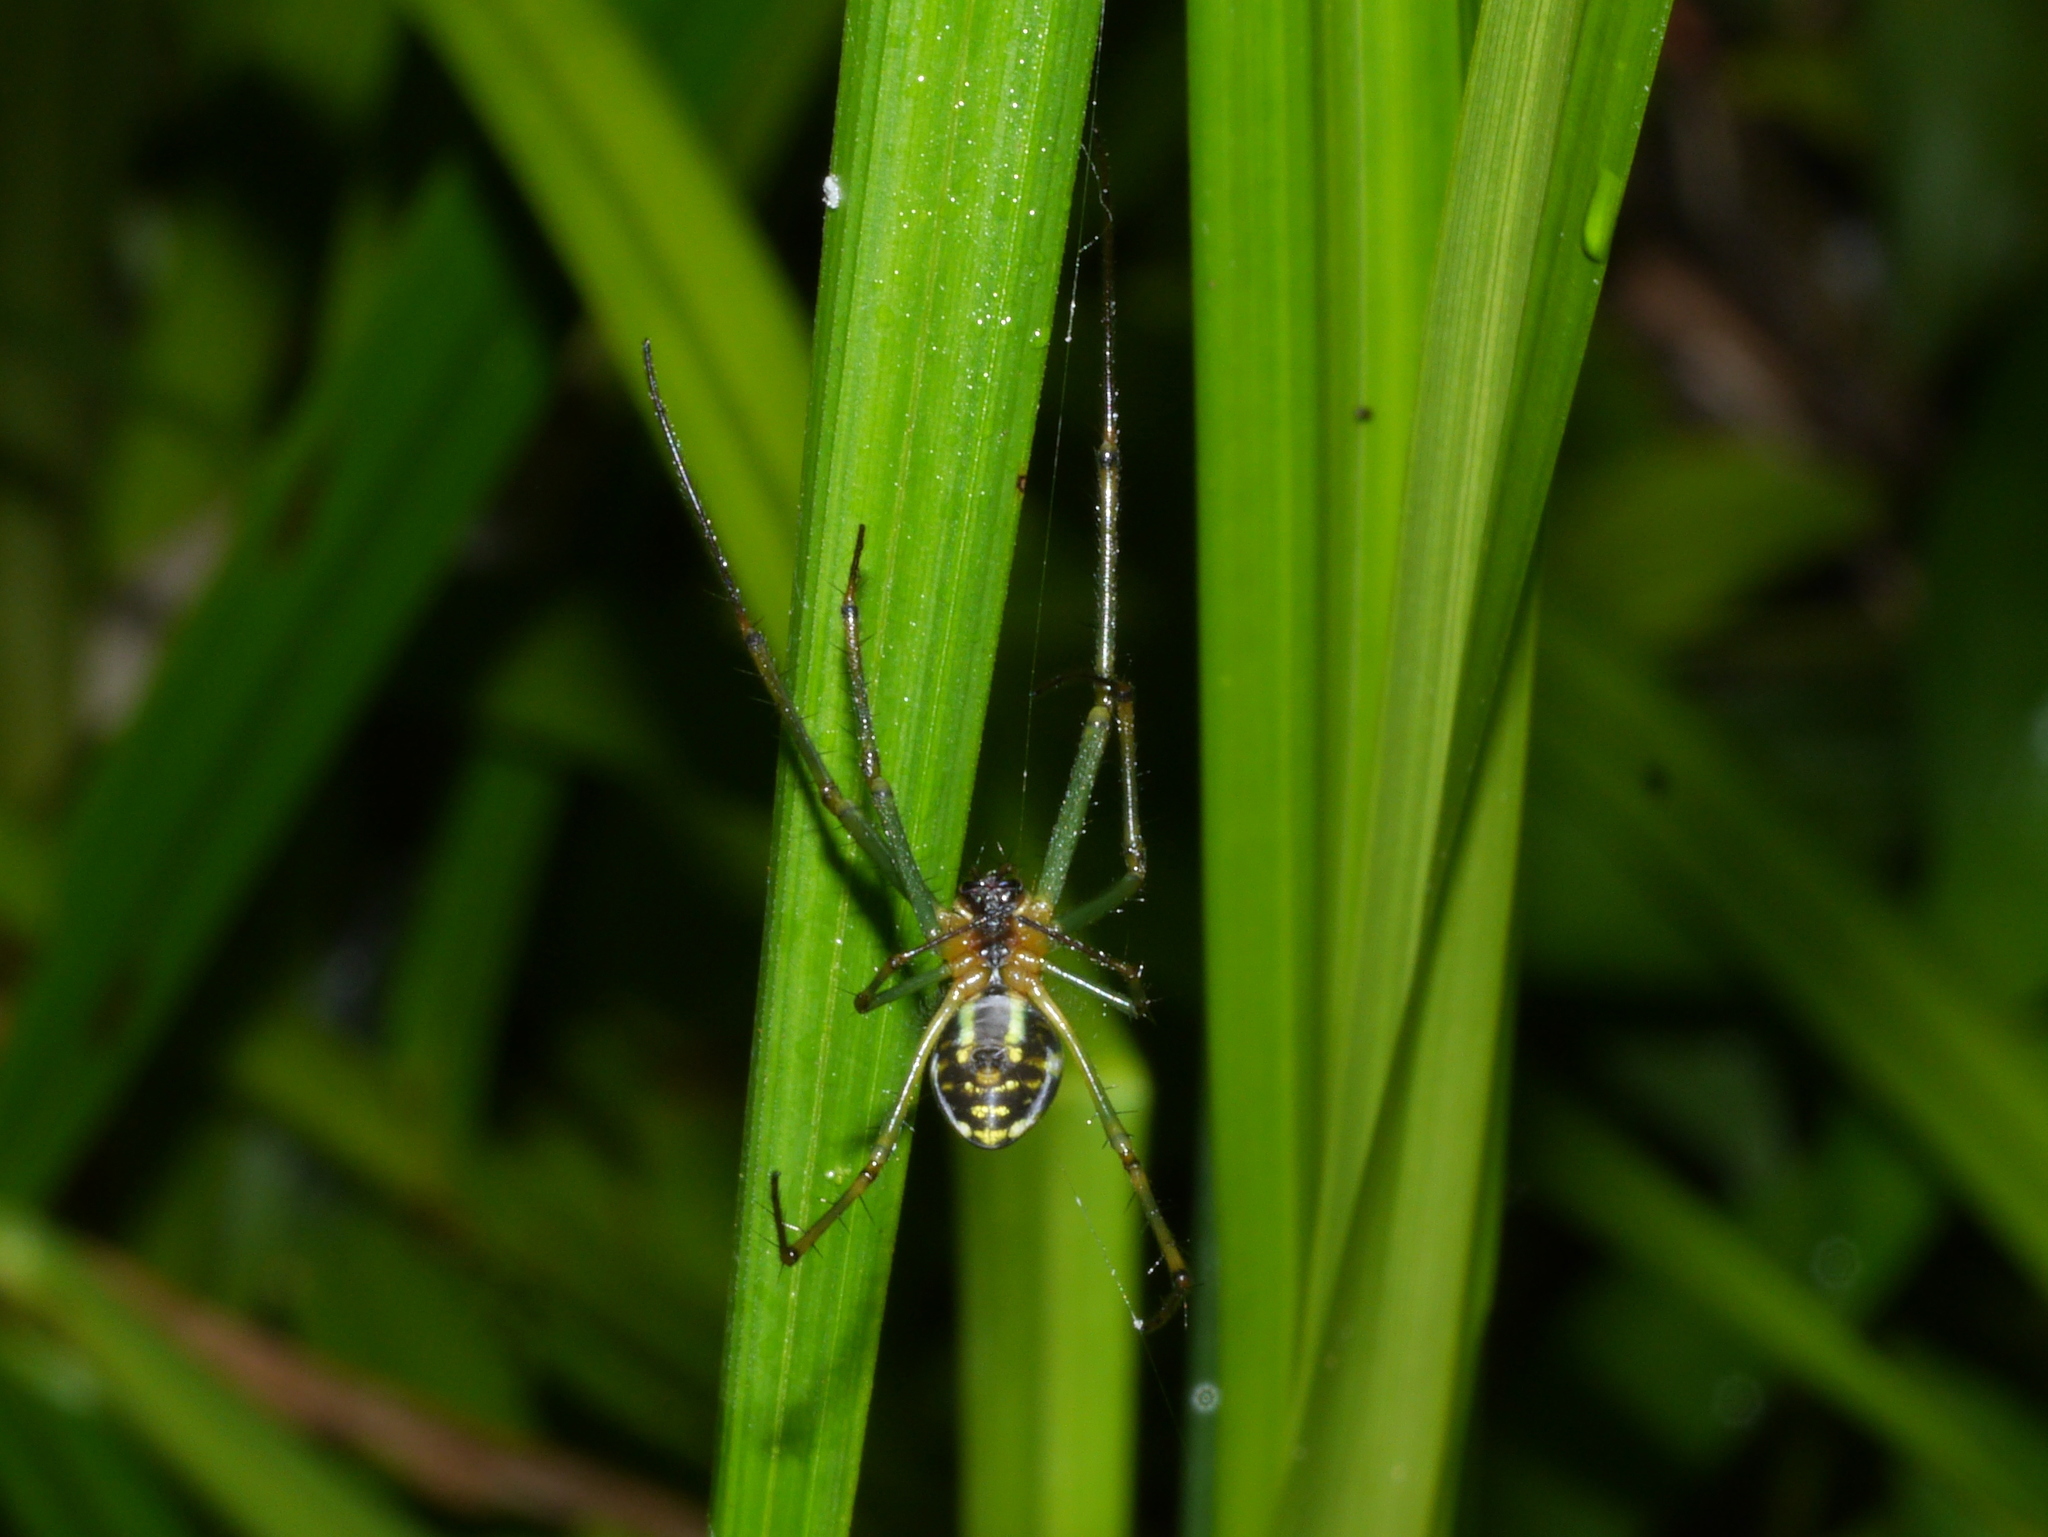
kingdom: Animalia
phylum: Arthropoda
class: Arachnida
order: Araneae
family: Tetragnathidae
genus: Leucauge
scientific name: Leucauge celebesiana
